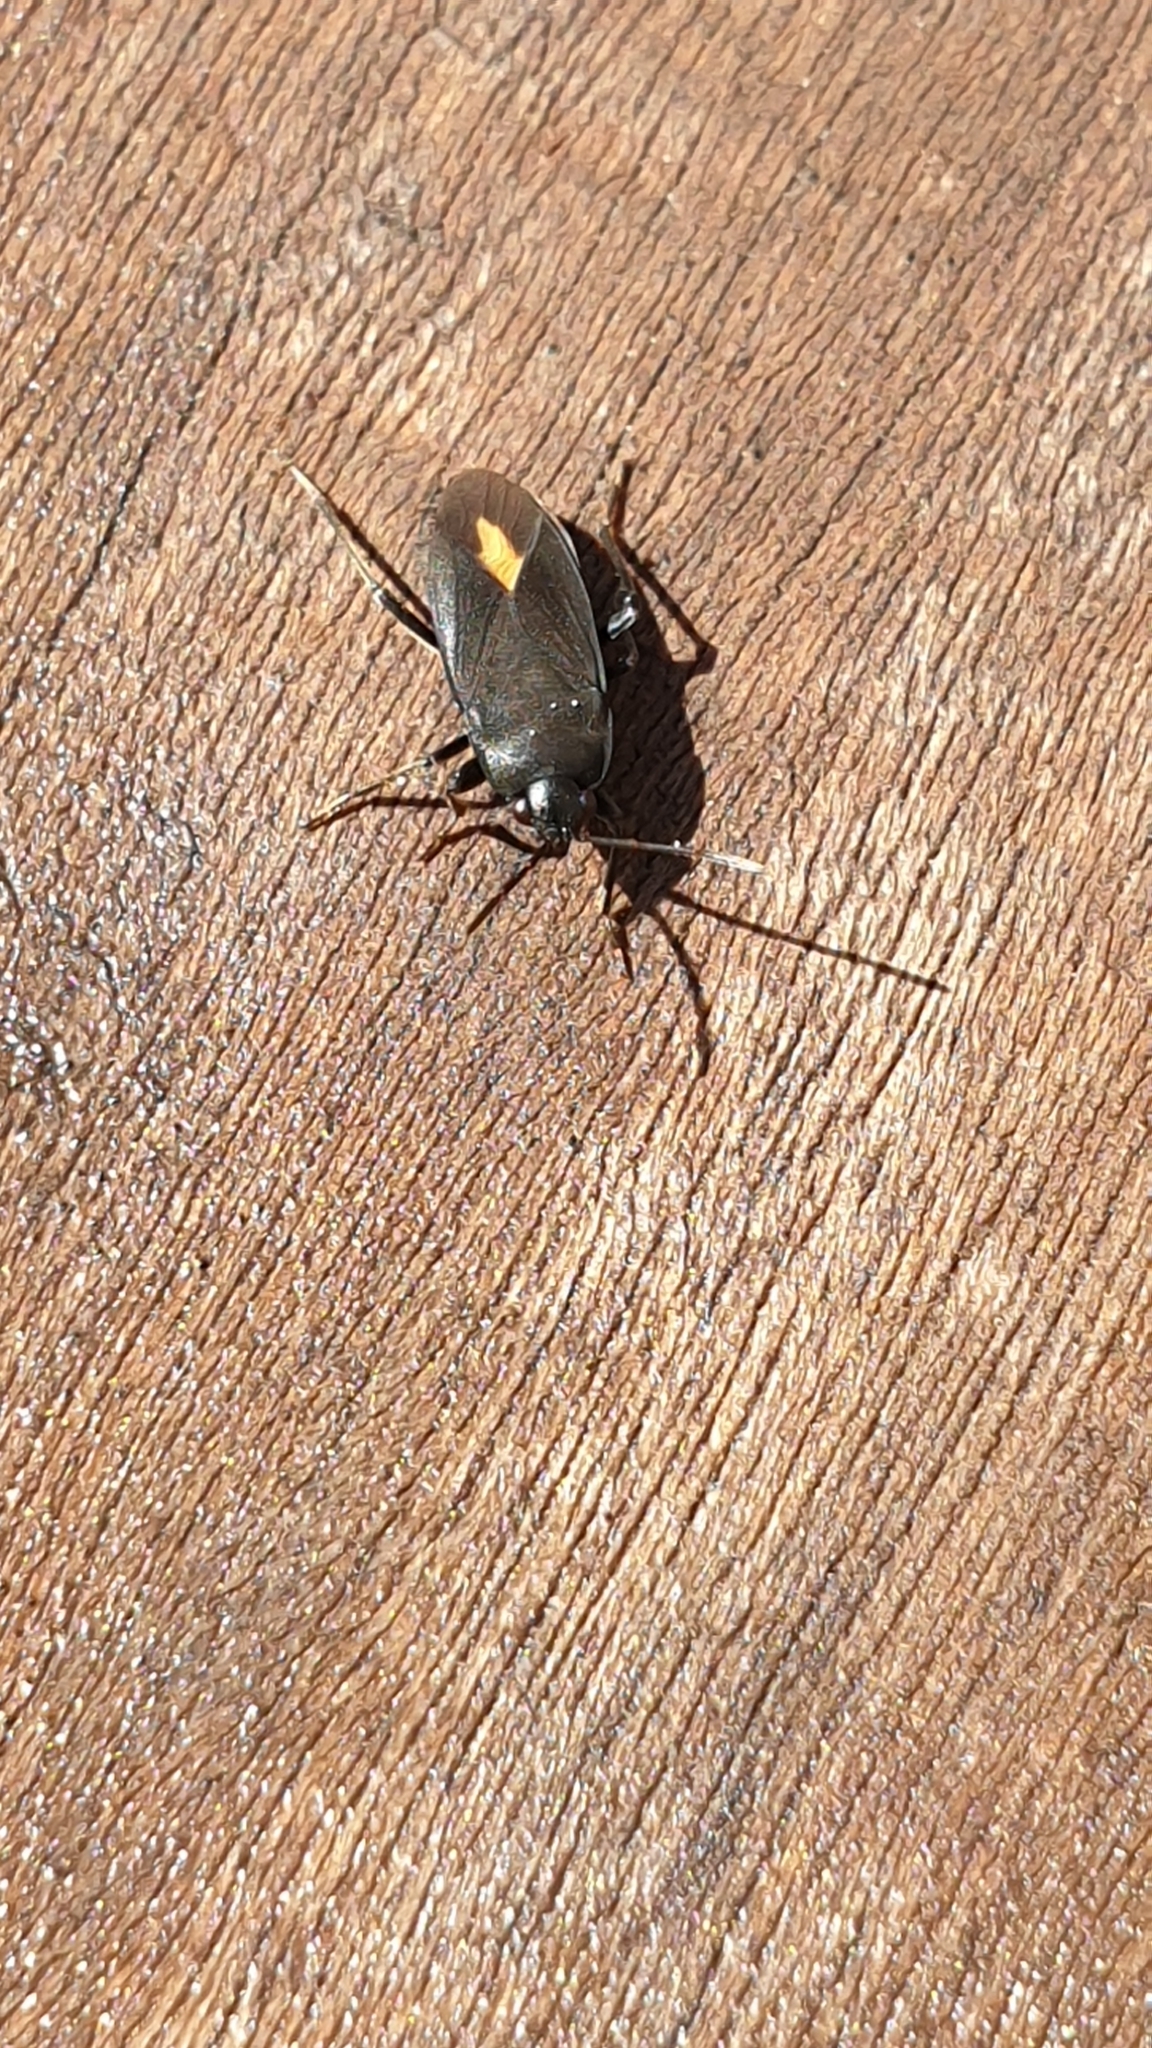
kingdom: Animalia
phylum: Arthropoda
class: Insecta
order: Hemiptera
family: Rhyparochromidae
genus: Aphanus
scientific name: Aphanus rolandri
